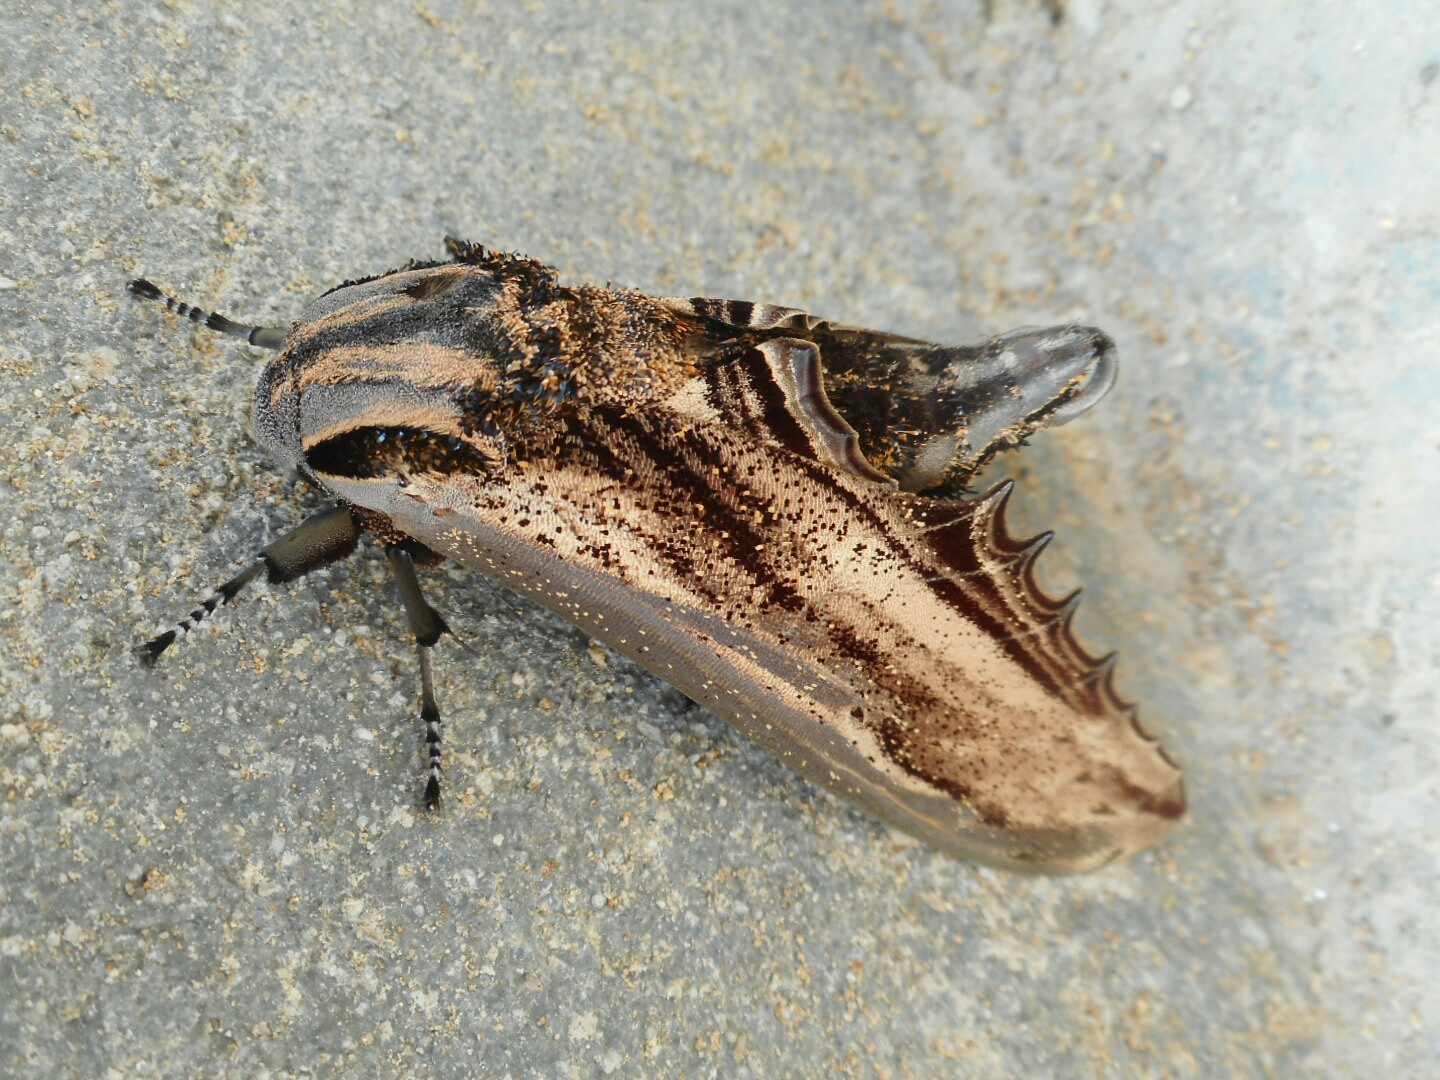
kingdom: Animalia
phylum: Arthropoda
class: Insecta
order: Lepidoptera
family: Sphingidae
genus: Langia
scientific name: Langia zenzeroides
